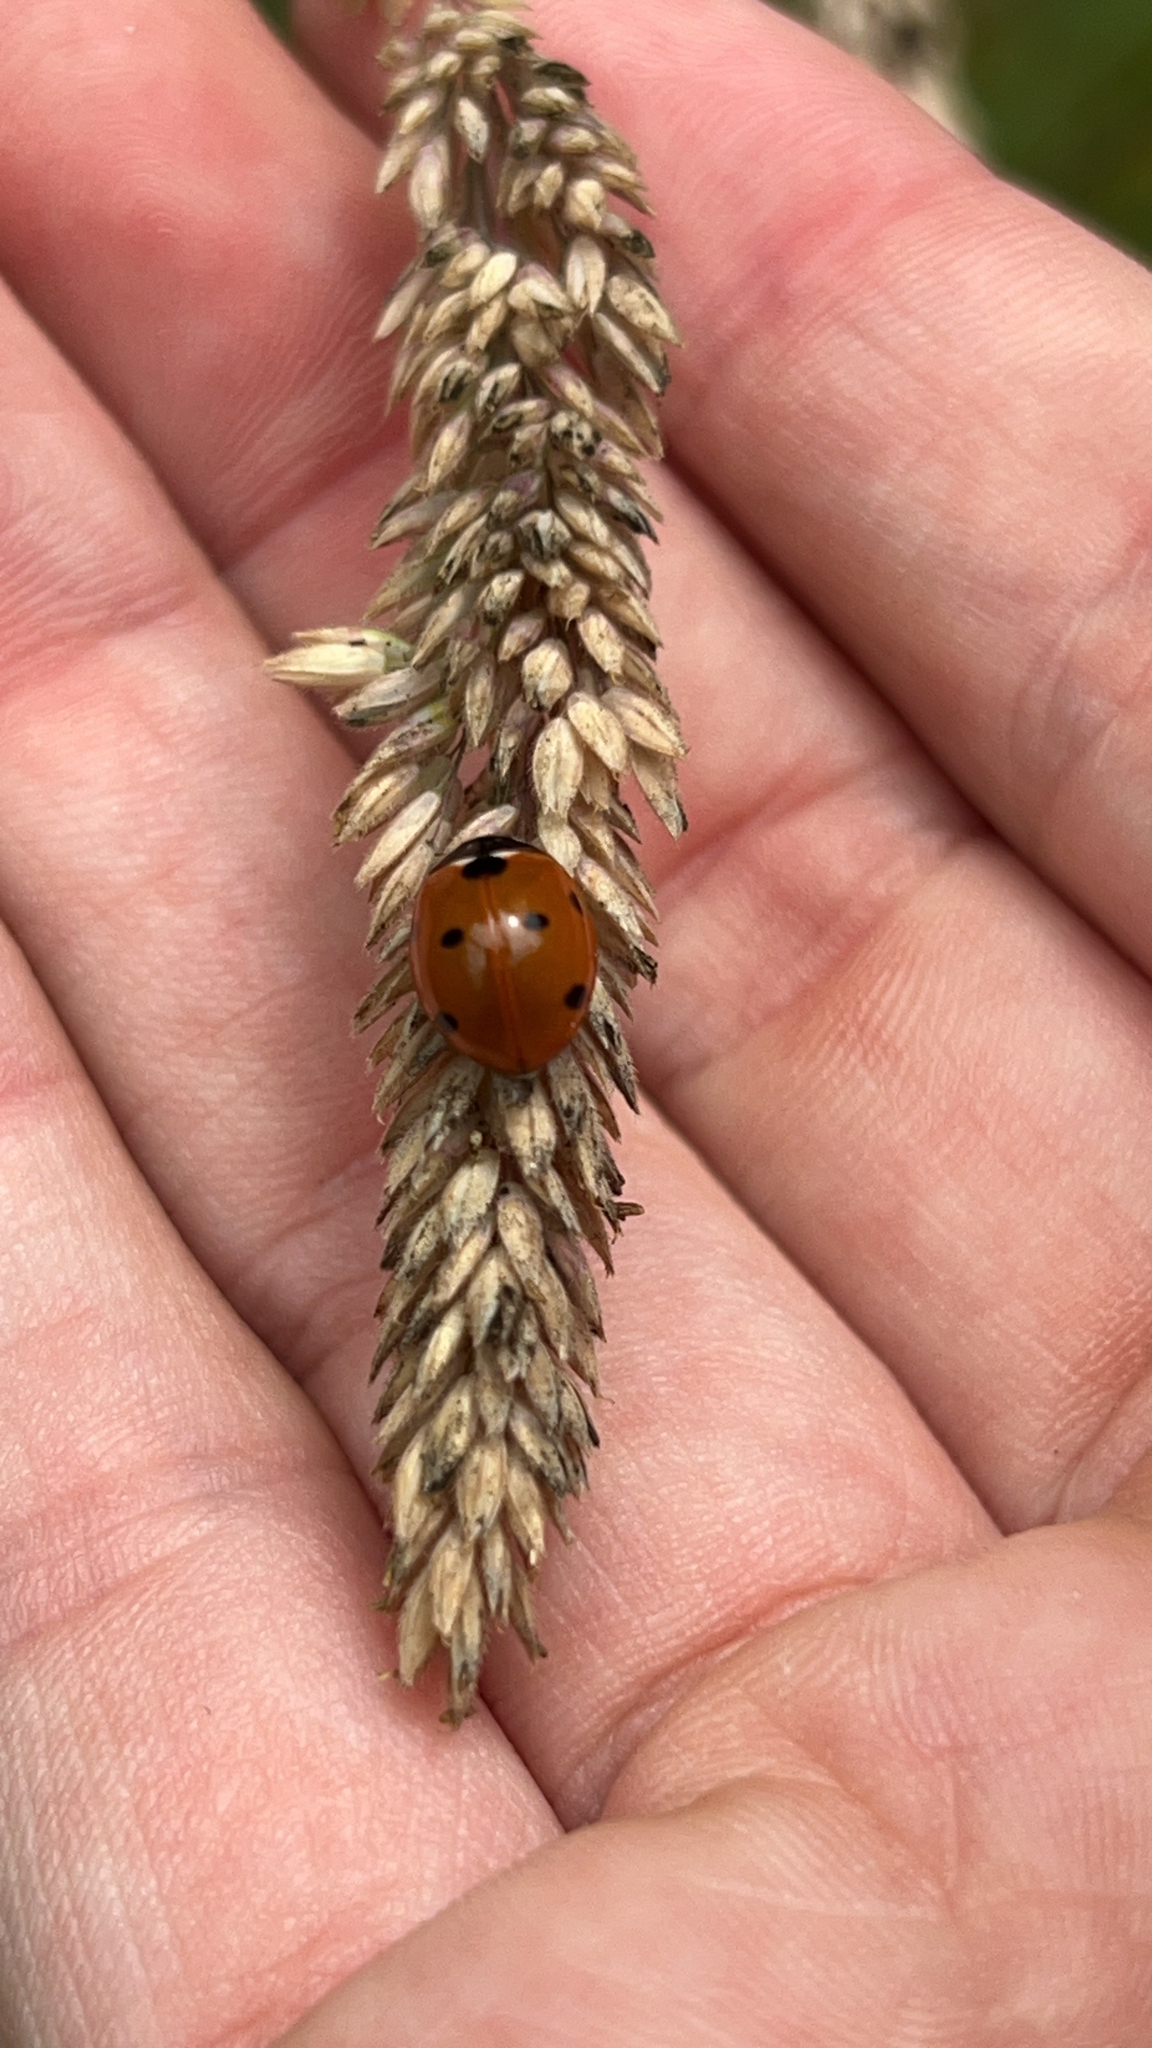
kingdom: Animalia
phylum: Arthropoda
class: Insecta
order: Coleoptera
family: Coccinellidae
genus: Coccinella
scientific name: Coccinella septempunctata
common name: Sevenspotted lady beetle
